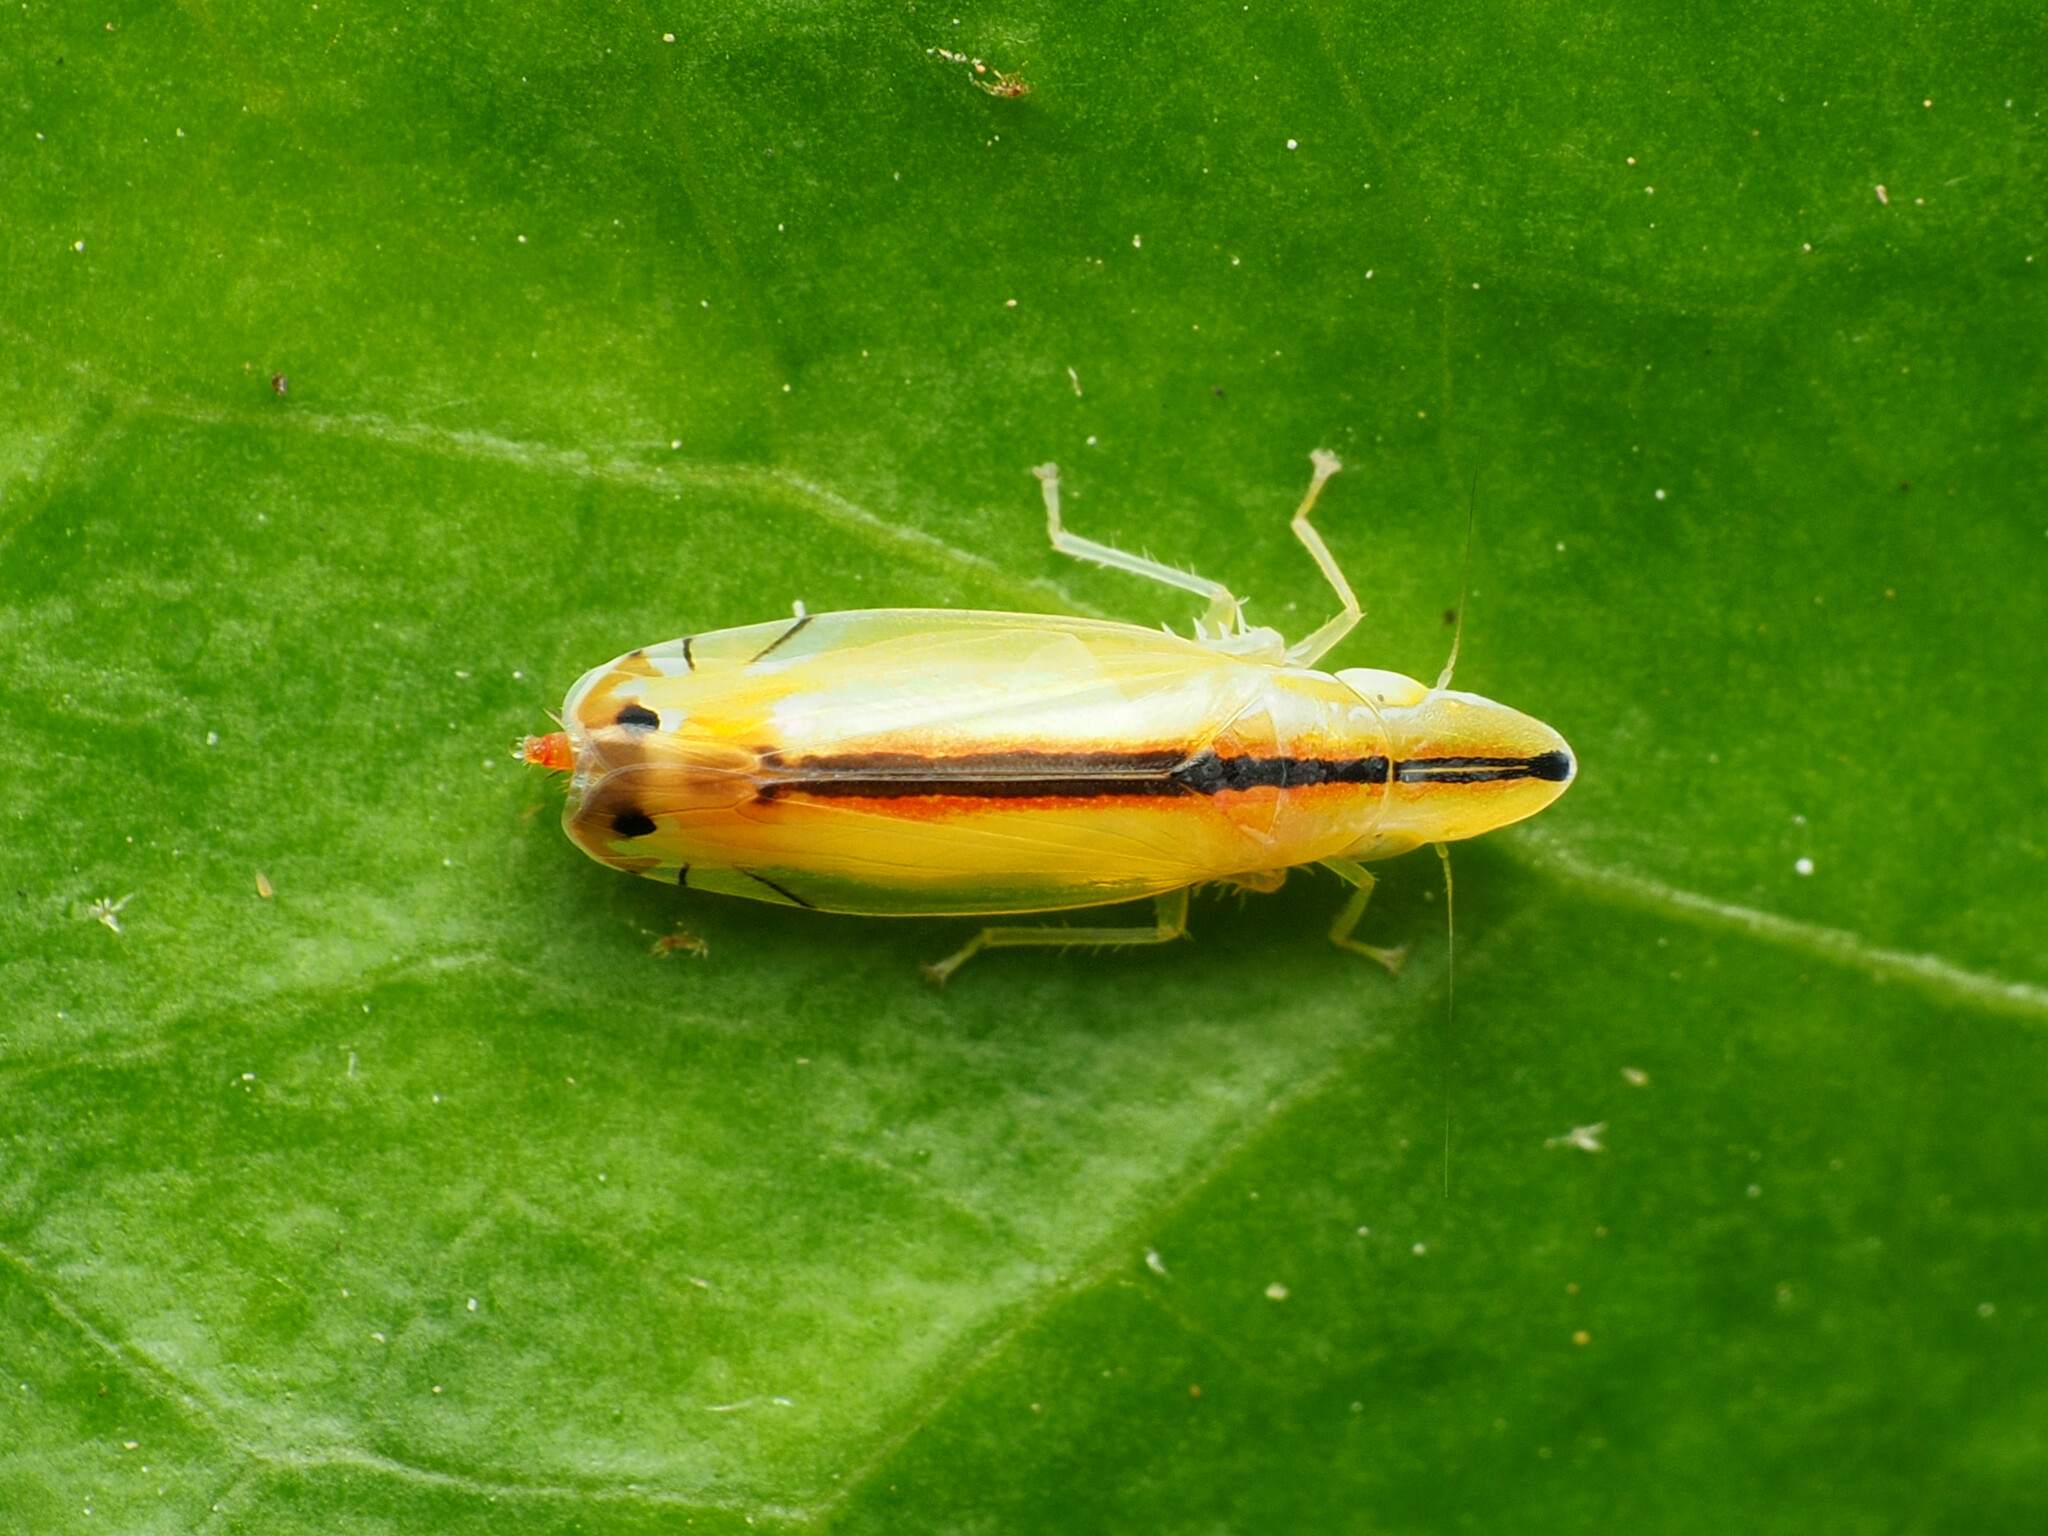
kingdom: Animalia
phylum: Arthropoda
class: Insecta
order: Hemiptera
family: Cicadellidae
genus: Sophonia
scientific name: Sophonia orientalis
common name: Two-spotted leafhopper
